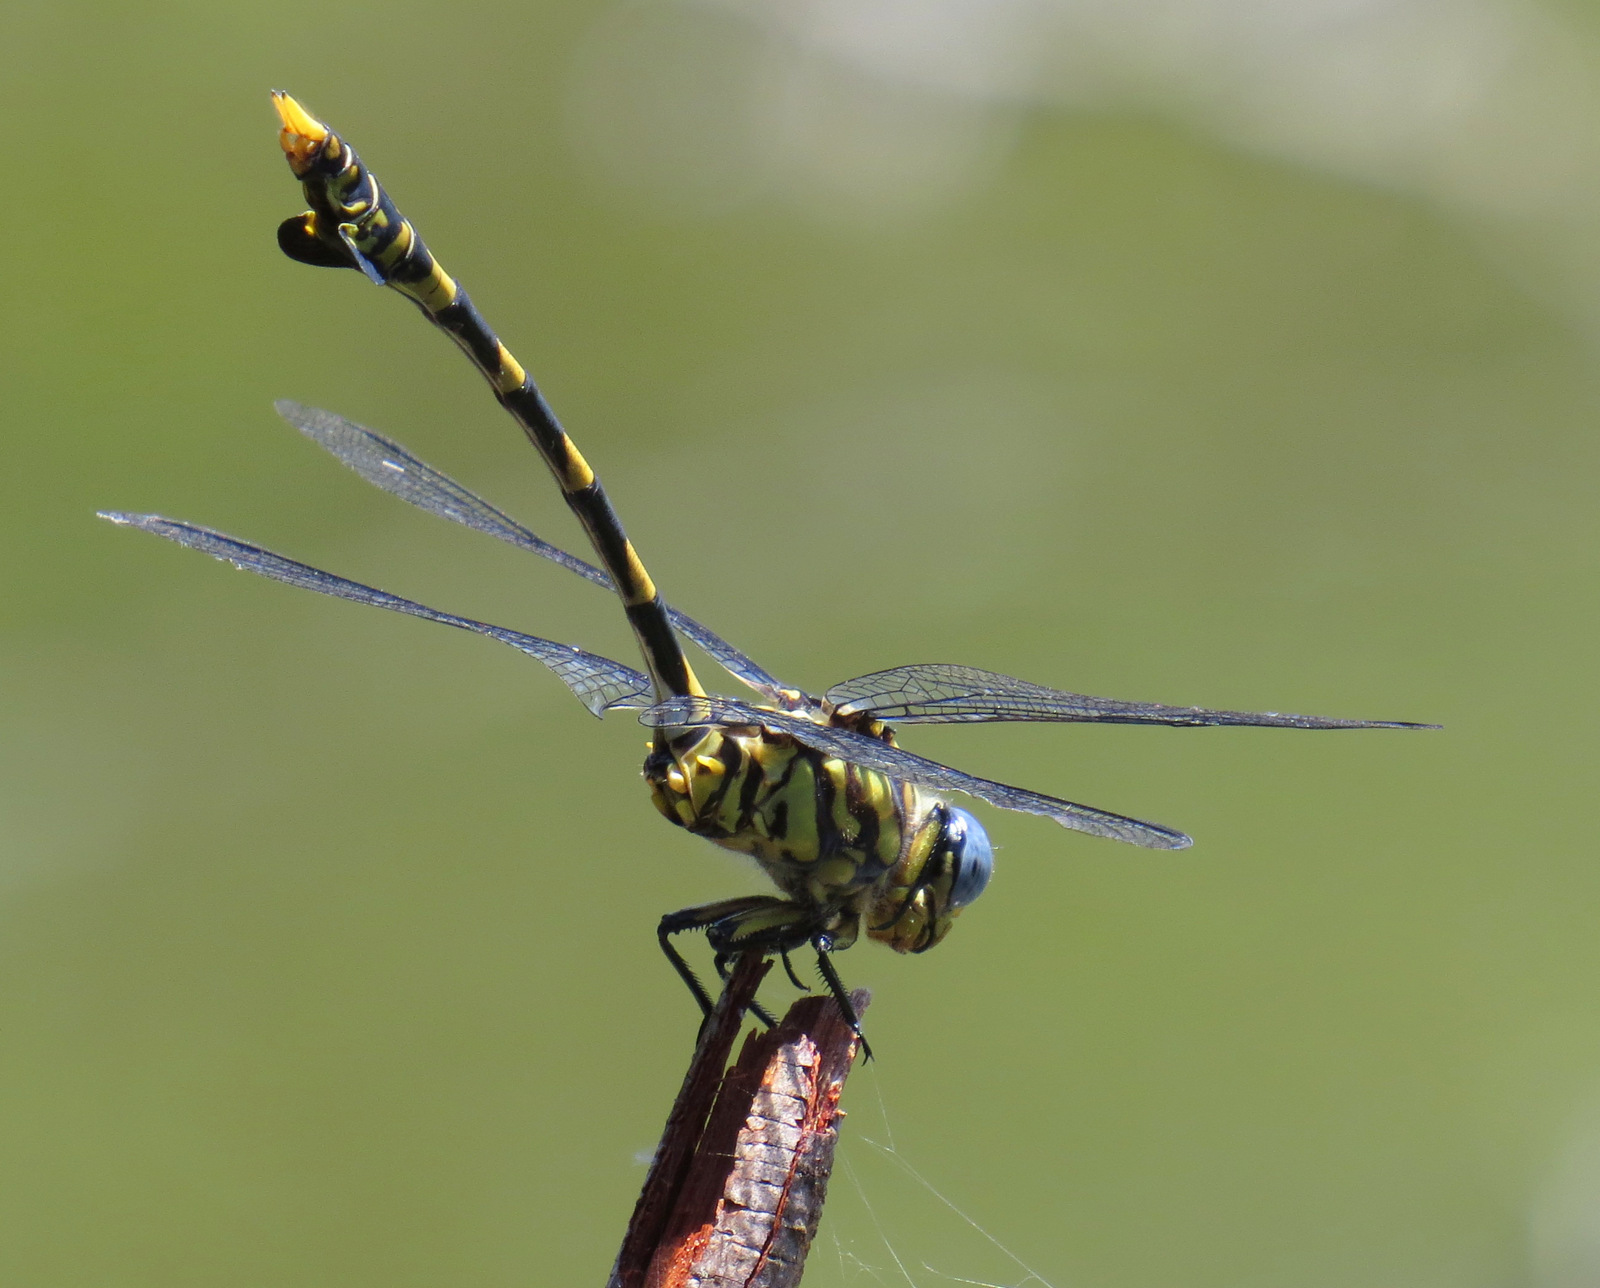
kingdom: Animalia
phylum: Arthropoda
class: Insecta
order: Odonata
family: Gomphidae
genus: Ictinogomphus
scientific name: Ictinogomphus ferox
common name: Common tiger
